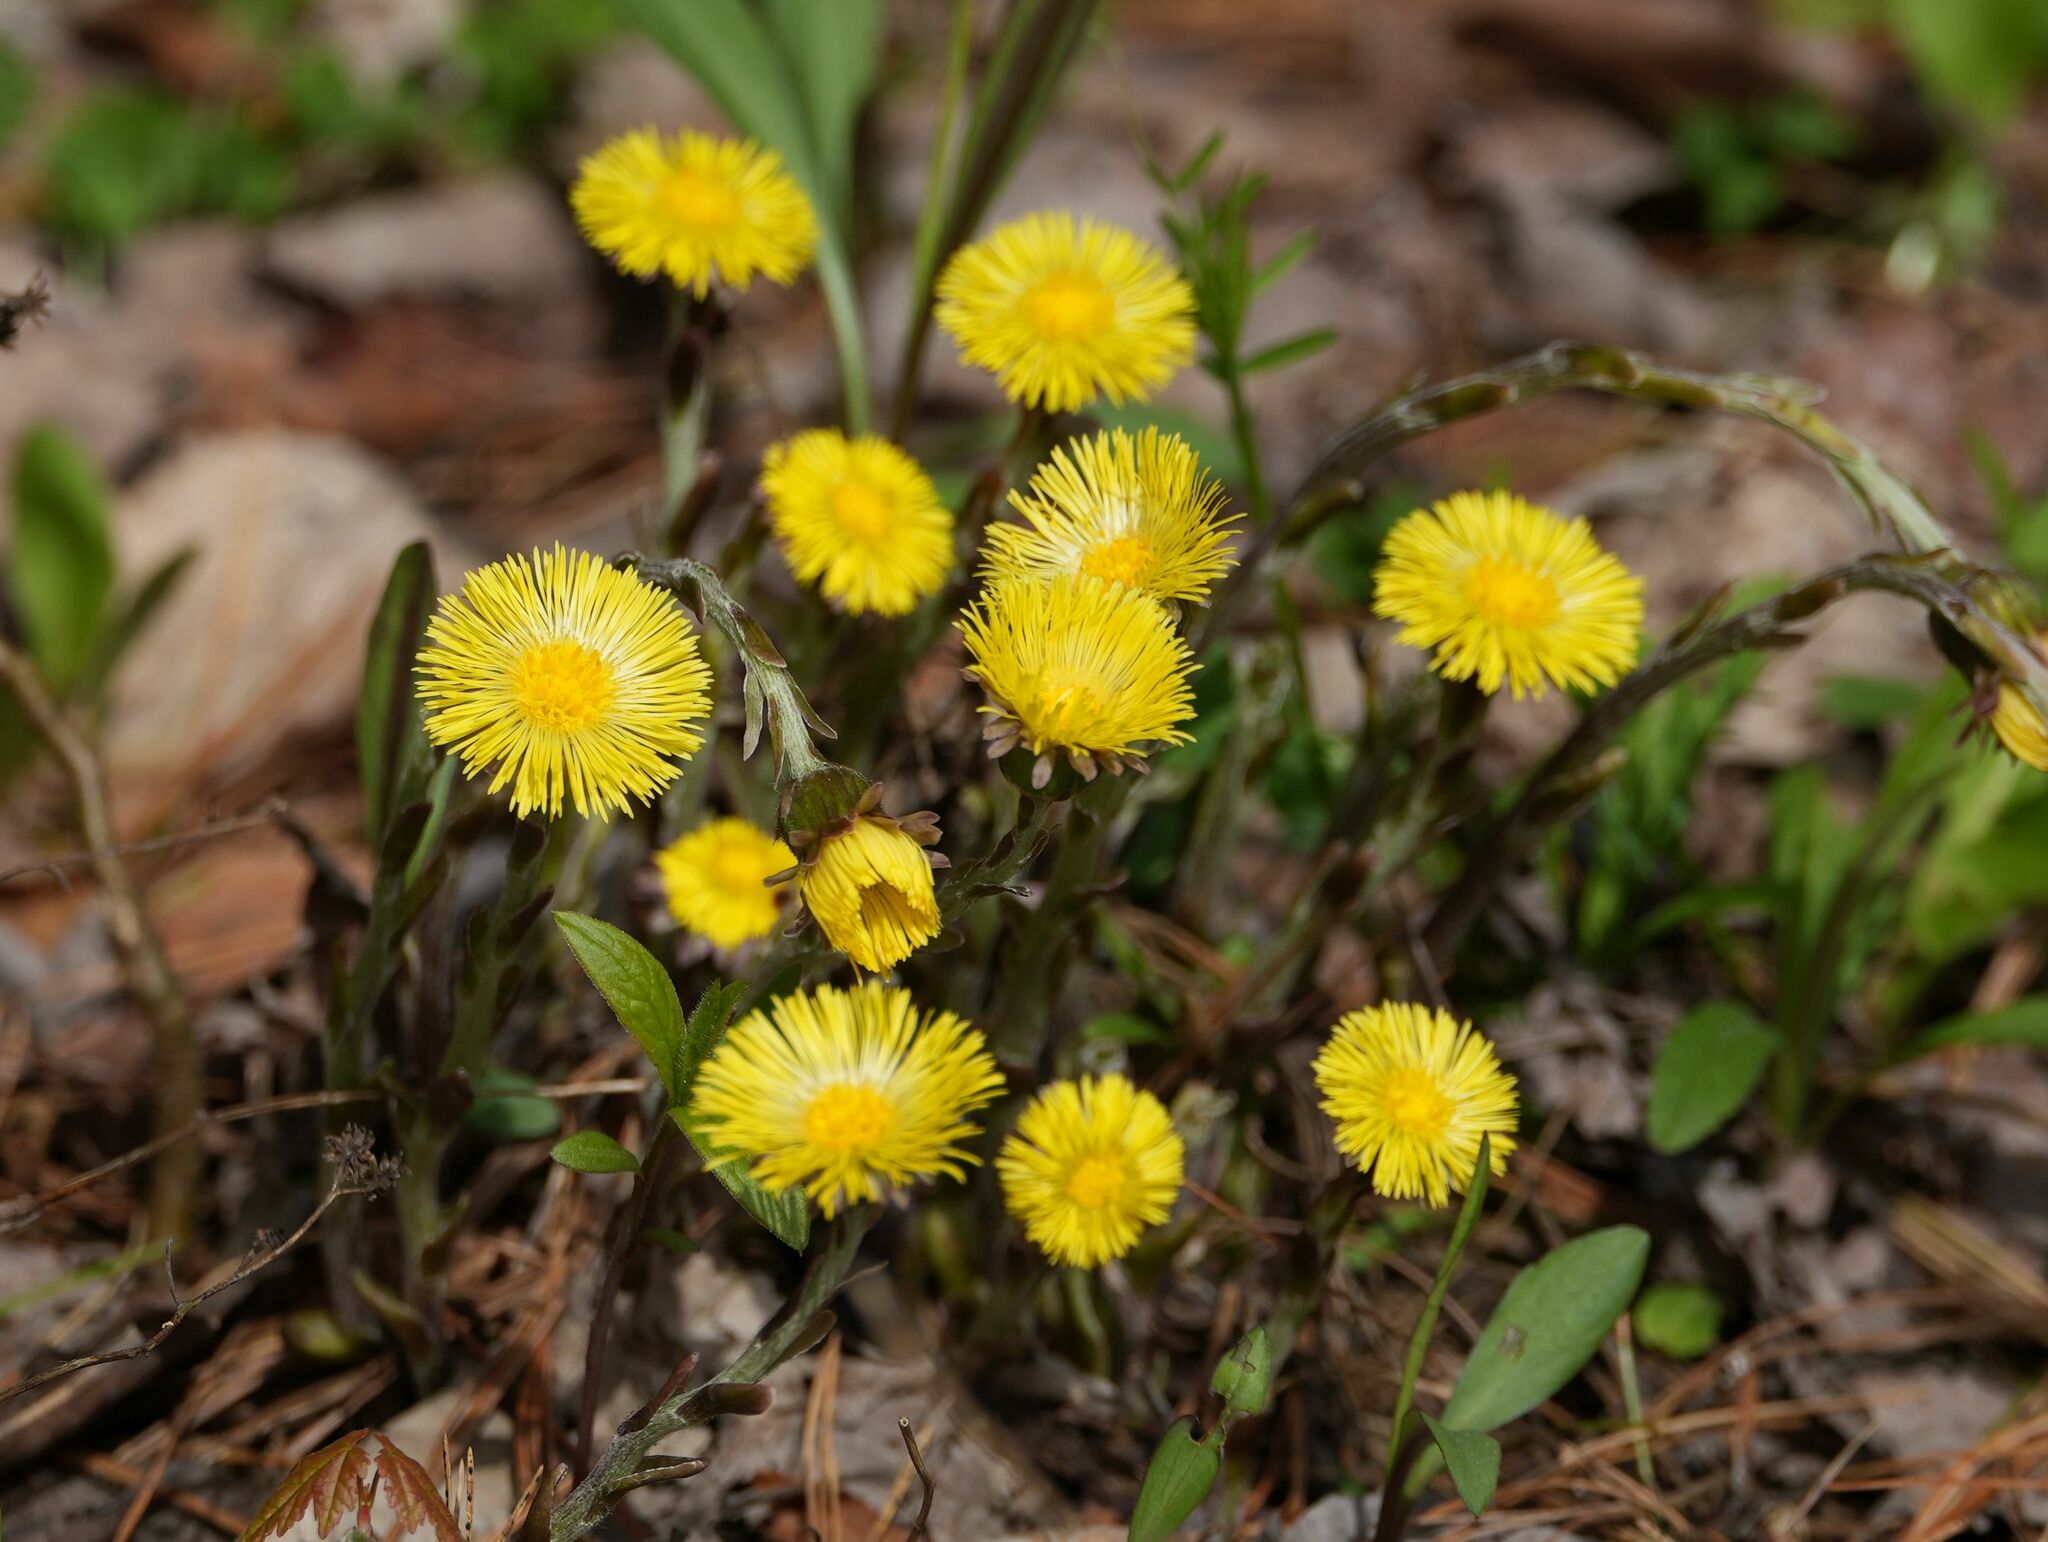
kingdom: Plantae
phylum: Tracheophyta
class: Magnoliopsida
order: Asterales
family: Asteraceae
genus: Tussilago
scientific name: Tussilago farfara
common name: Coltsfoot
